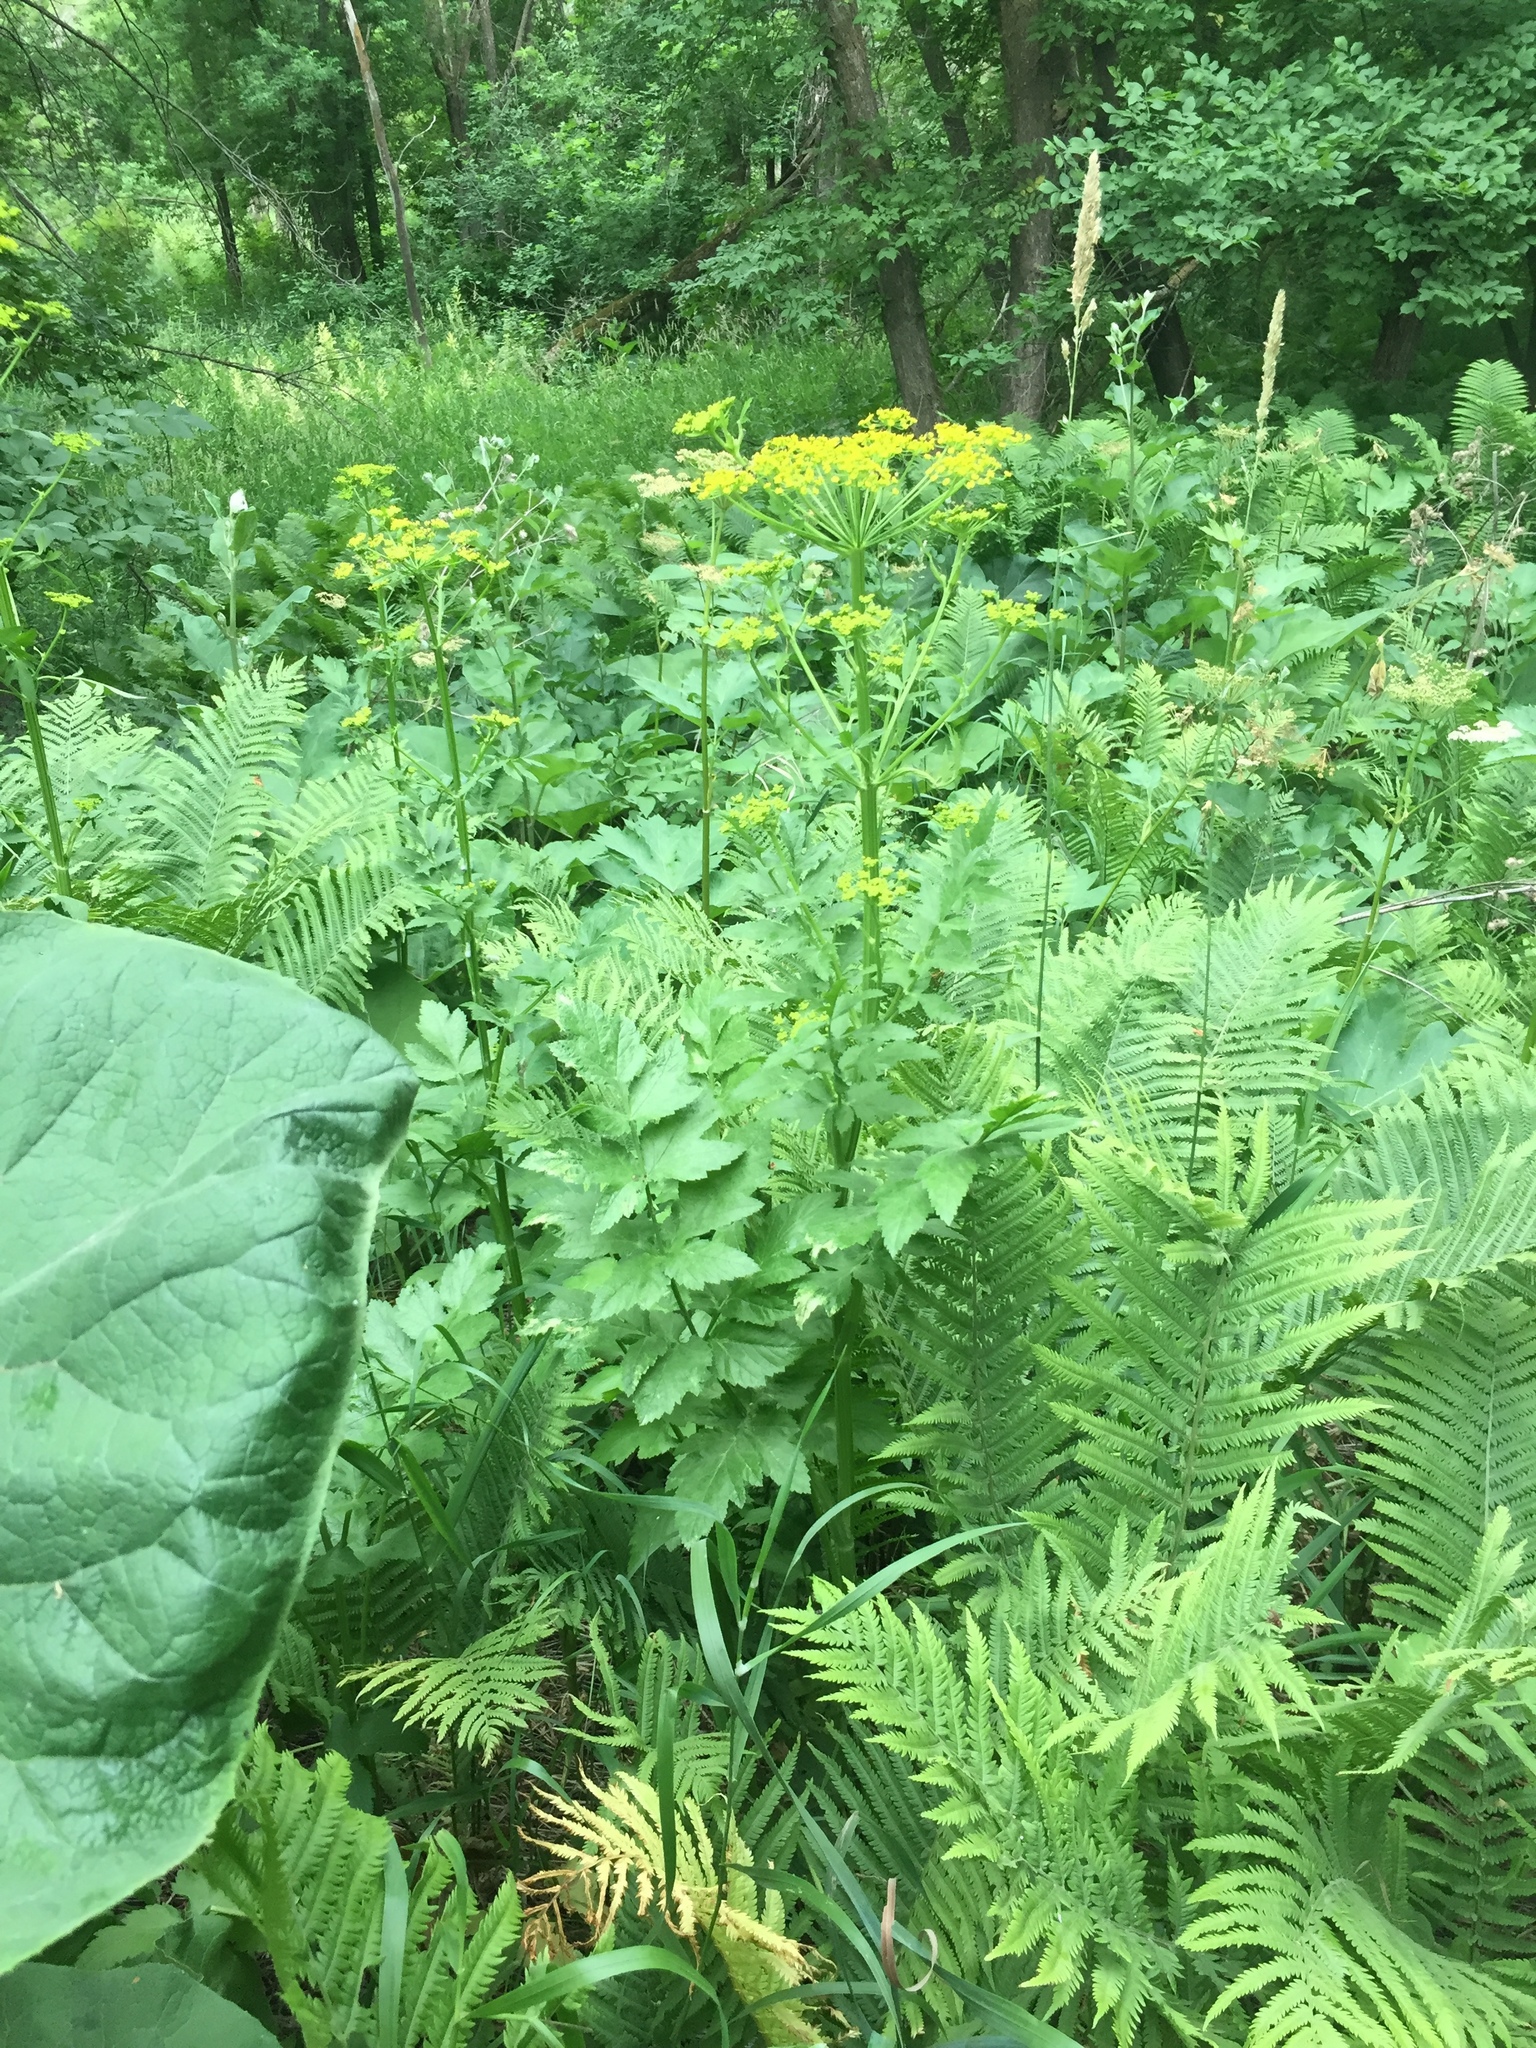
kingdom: Plantae
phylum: Tracheophyta
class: Magnoliopsida
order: Apiales
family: Apiaceae
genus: Pastinaca
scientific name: Pastinaca sativa
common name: Wild parsnip
